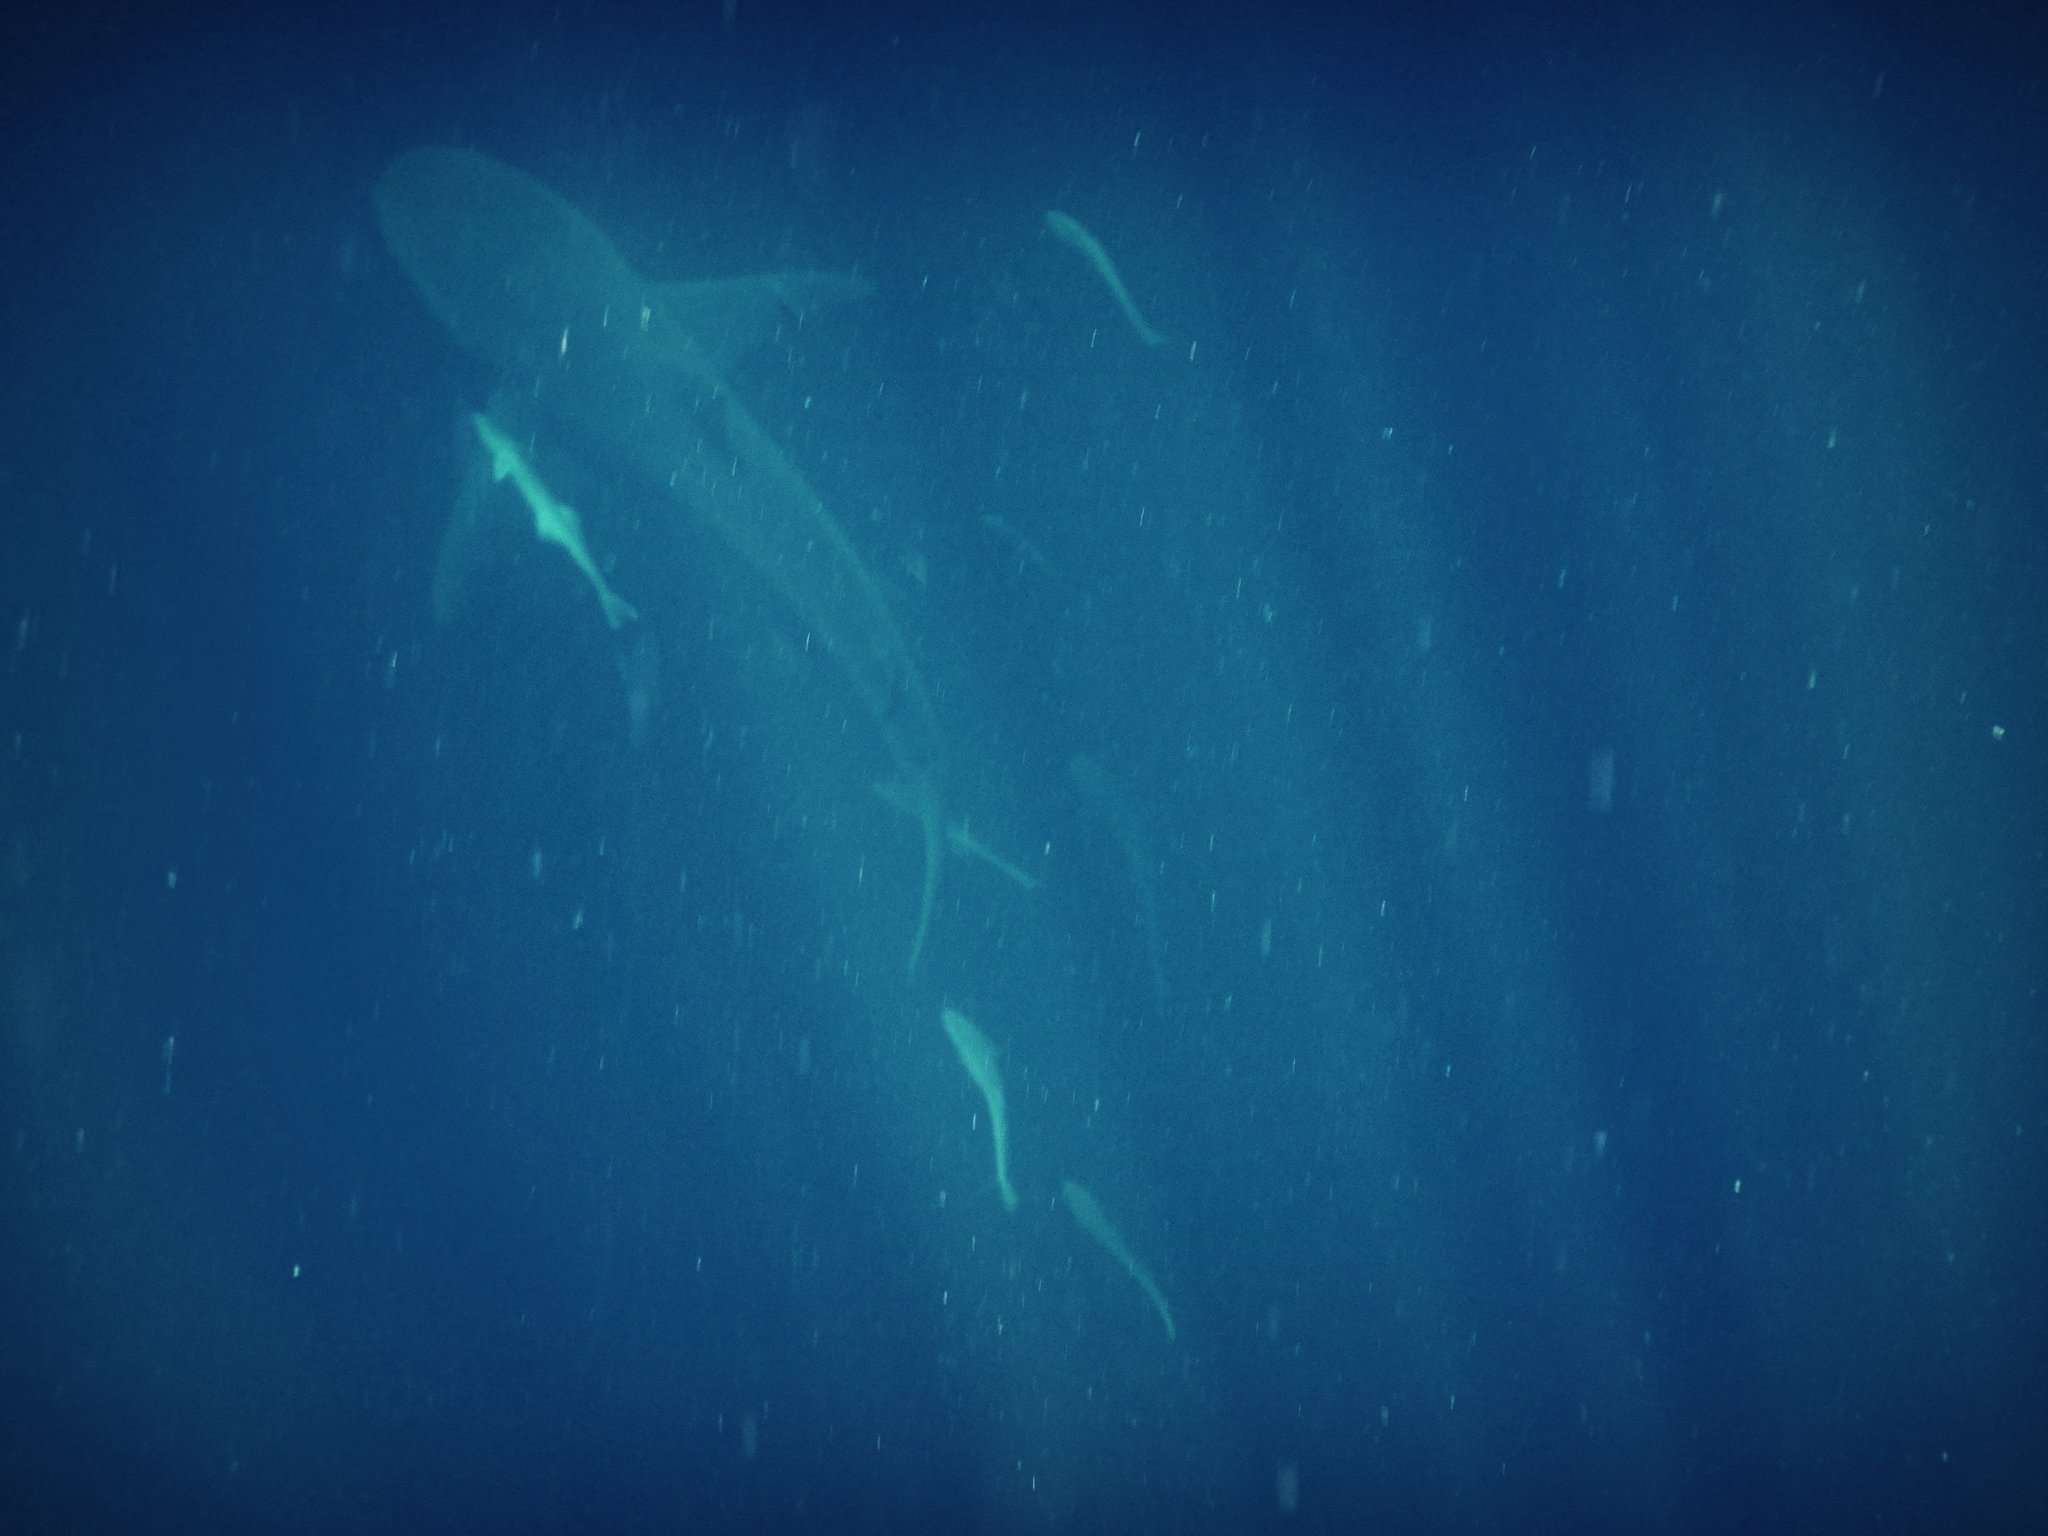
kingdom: Animalia
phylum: Chordata
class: Elasmobranchii
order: Carcharhiniformes
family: Carcharhinidae
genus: Carcharhinus
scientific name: Carcharhinus leucas
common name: Bull shark
